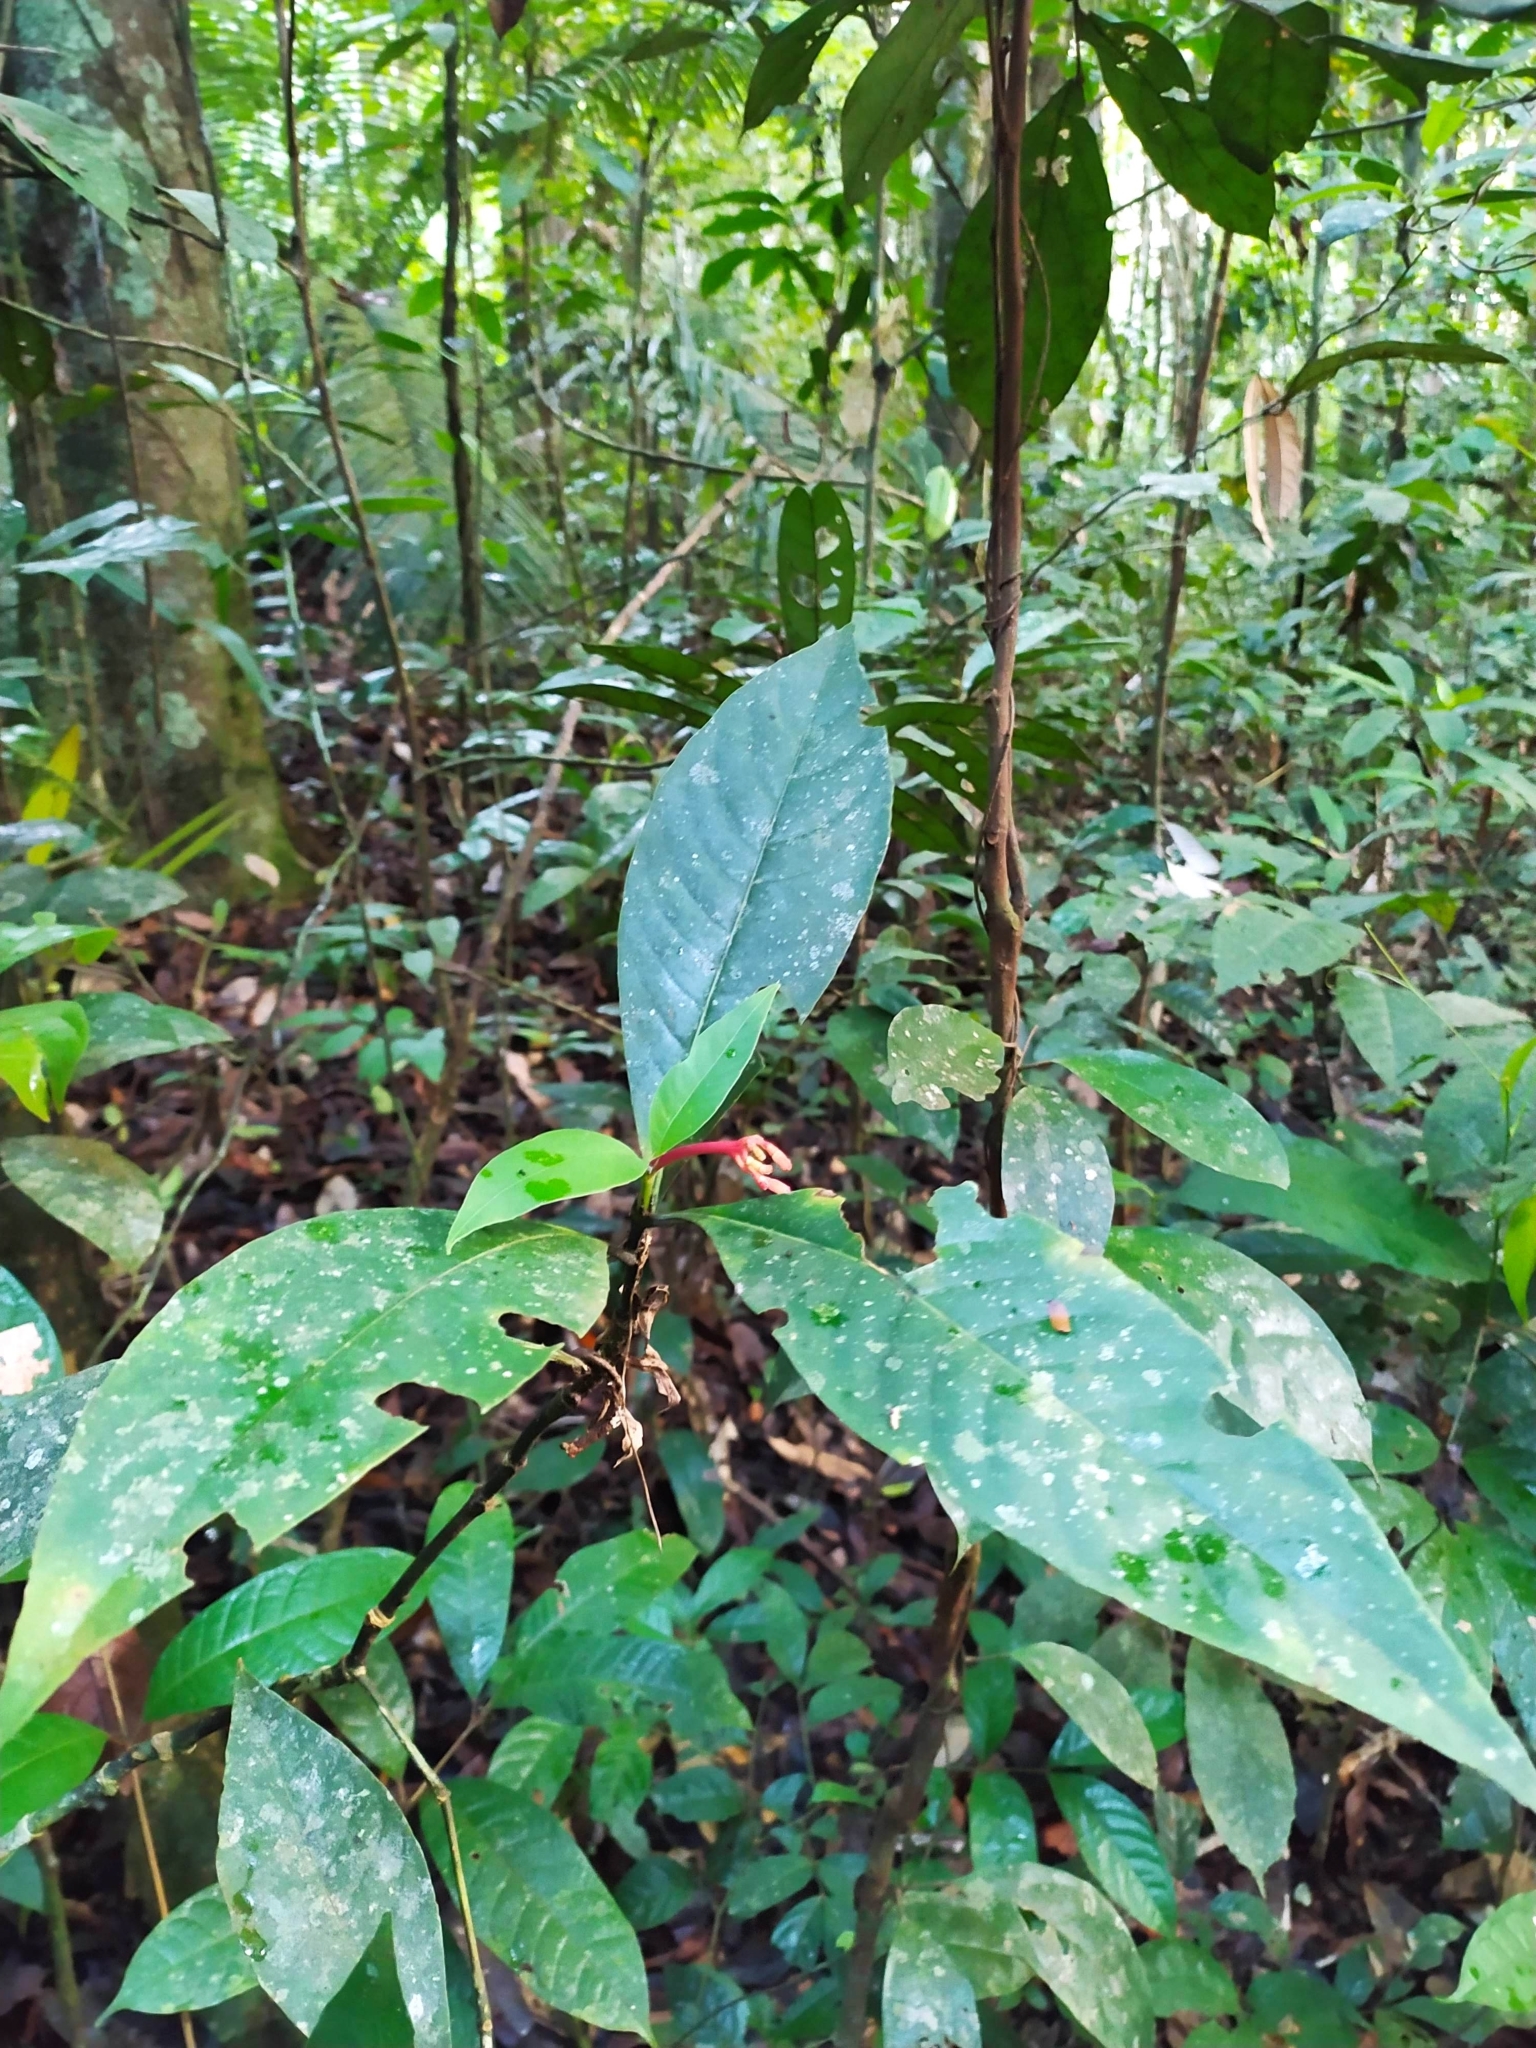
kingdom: Plantae
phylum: Tracheophyta
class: Magnoliopsida
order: Gentianales
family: Rubiaceae
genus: Palicourea
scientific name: Palicourea calophylla
